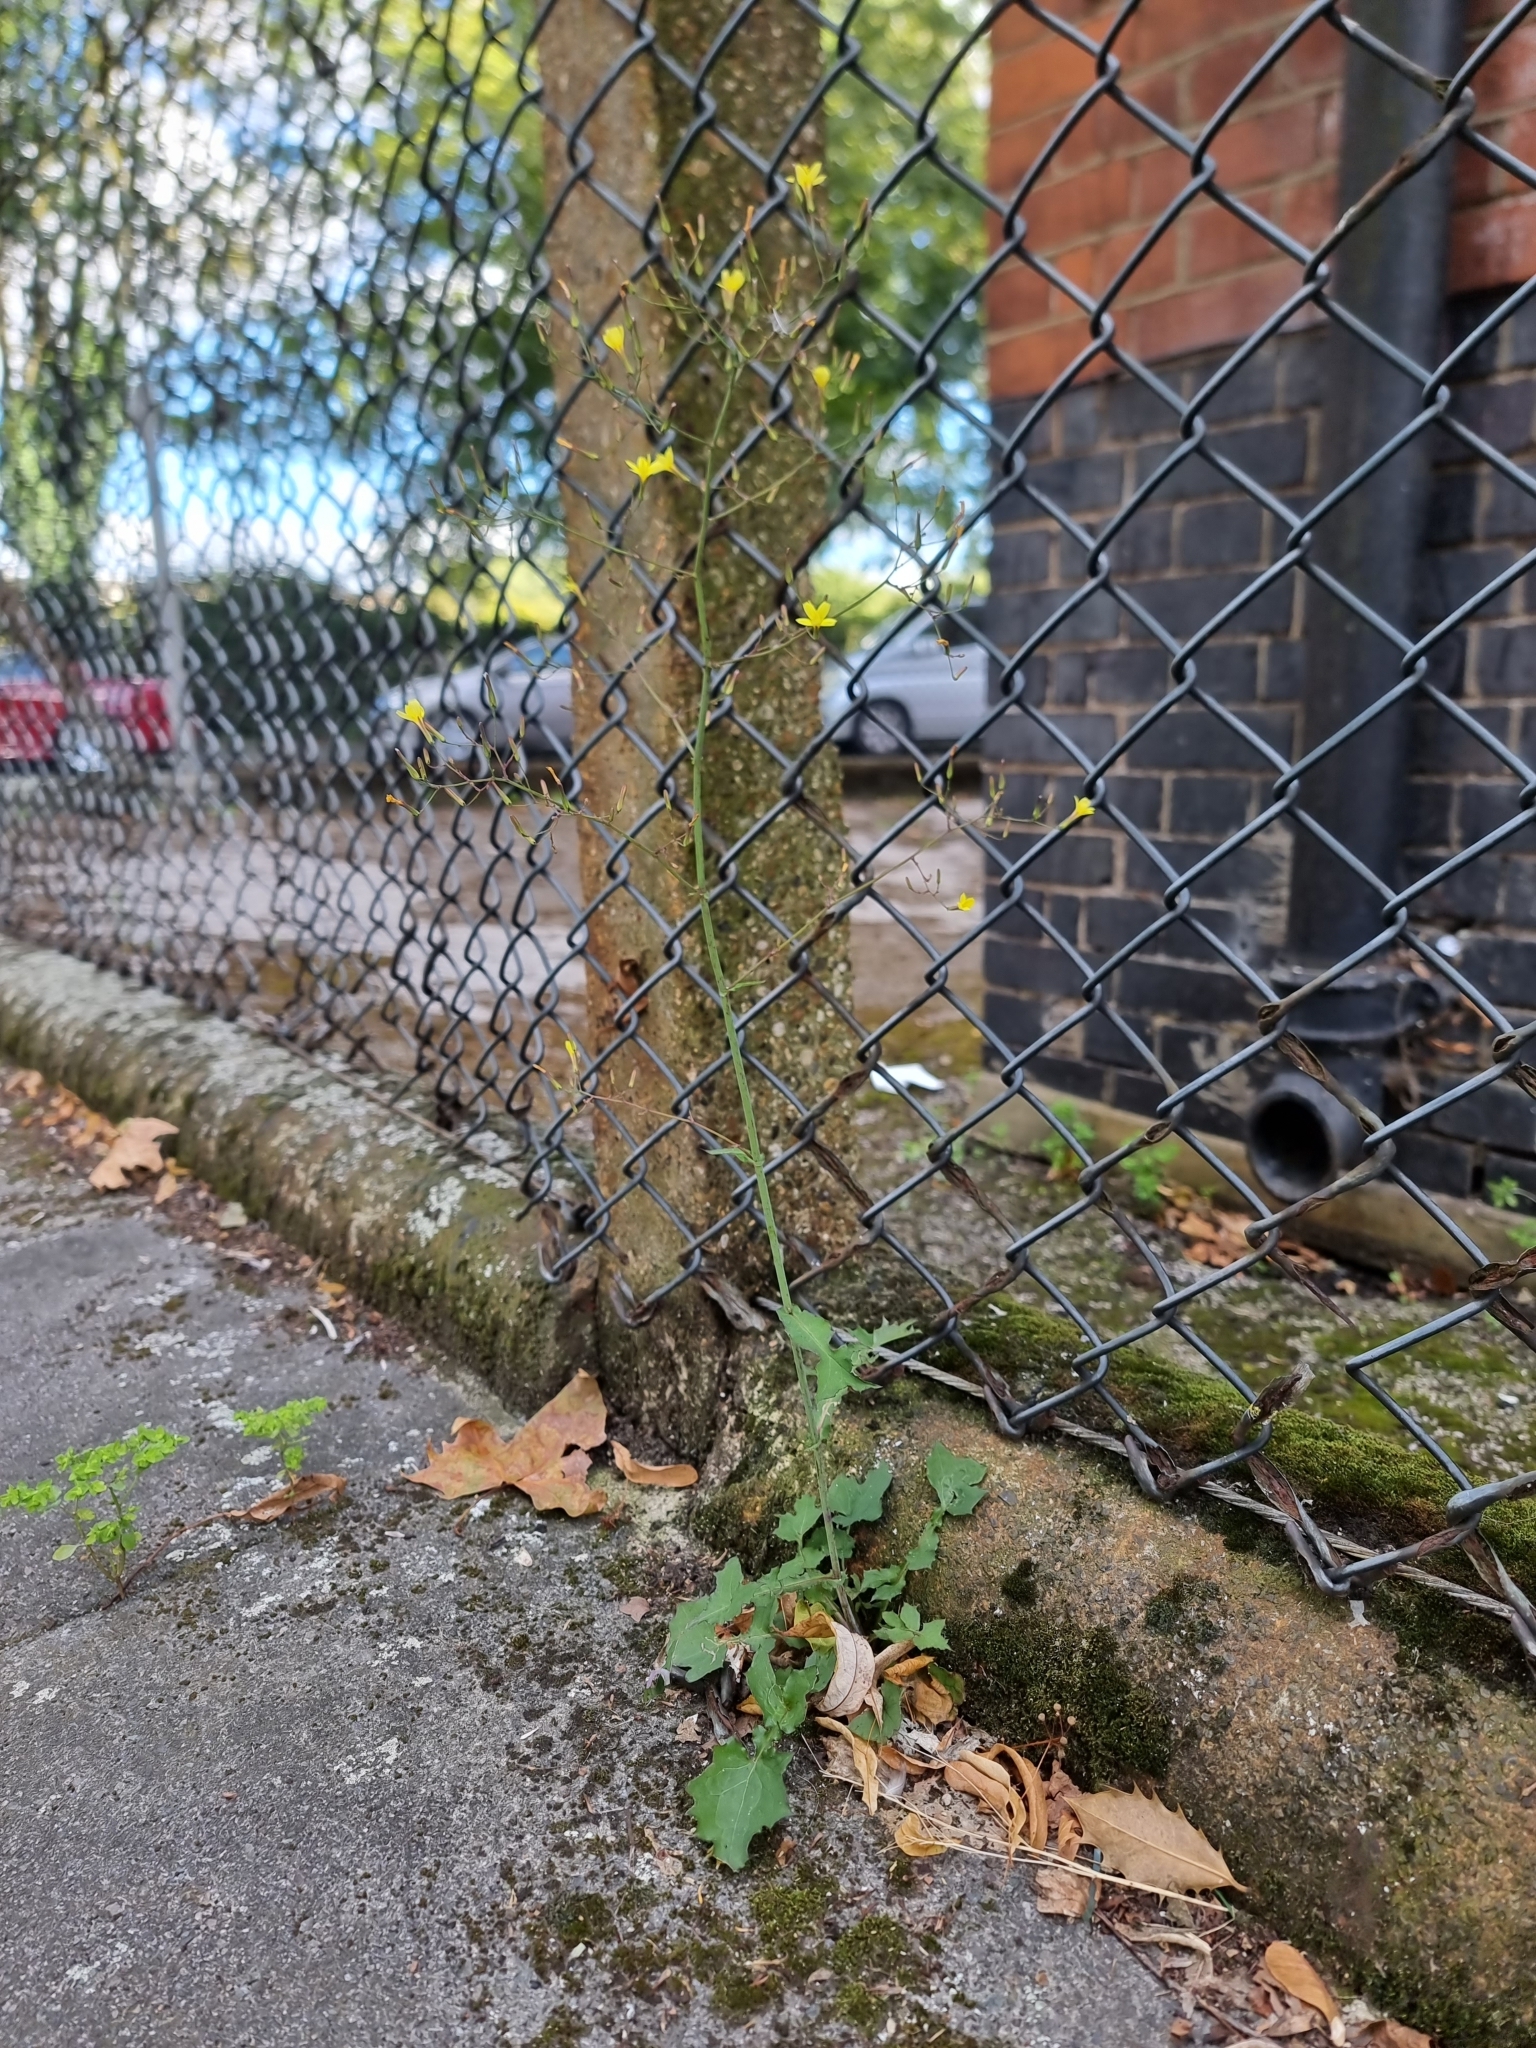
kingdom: Plantae
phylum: Tracheophyta
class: Magnoliopsida
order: Asterales
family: Asteraceae
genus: Mycelis
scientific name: Mycelis muralis
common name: Wall lettuce
